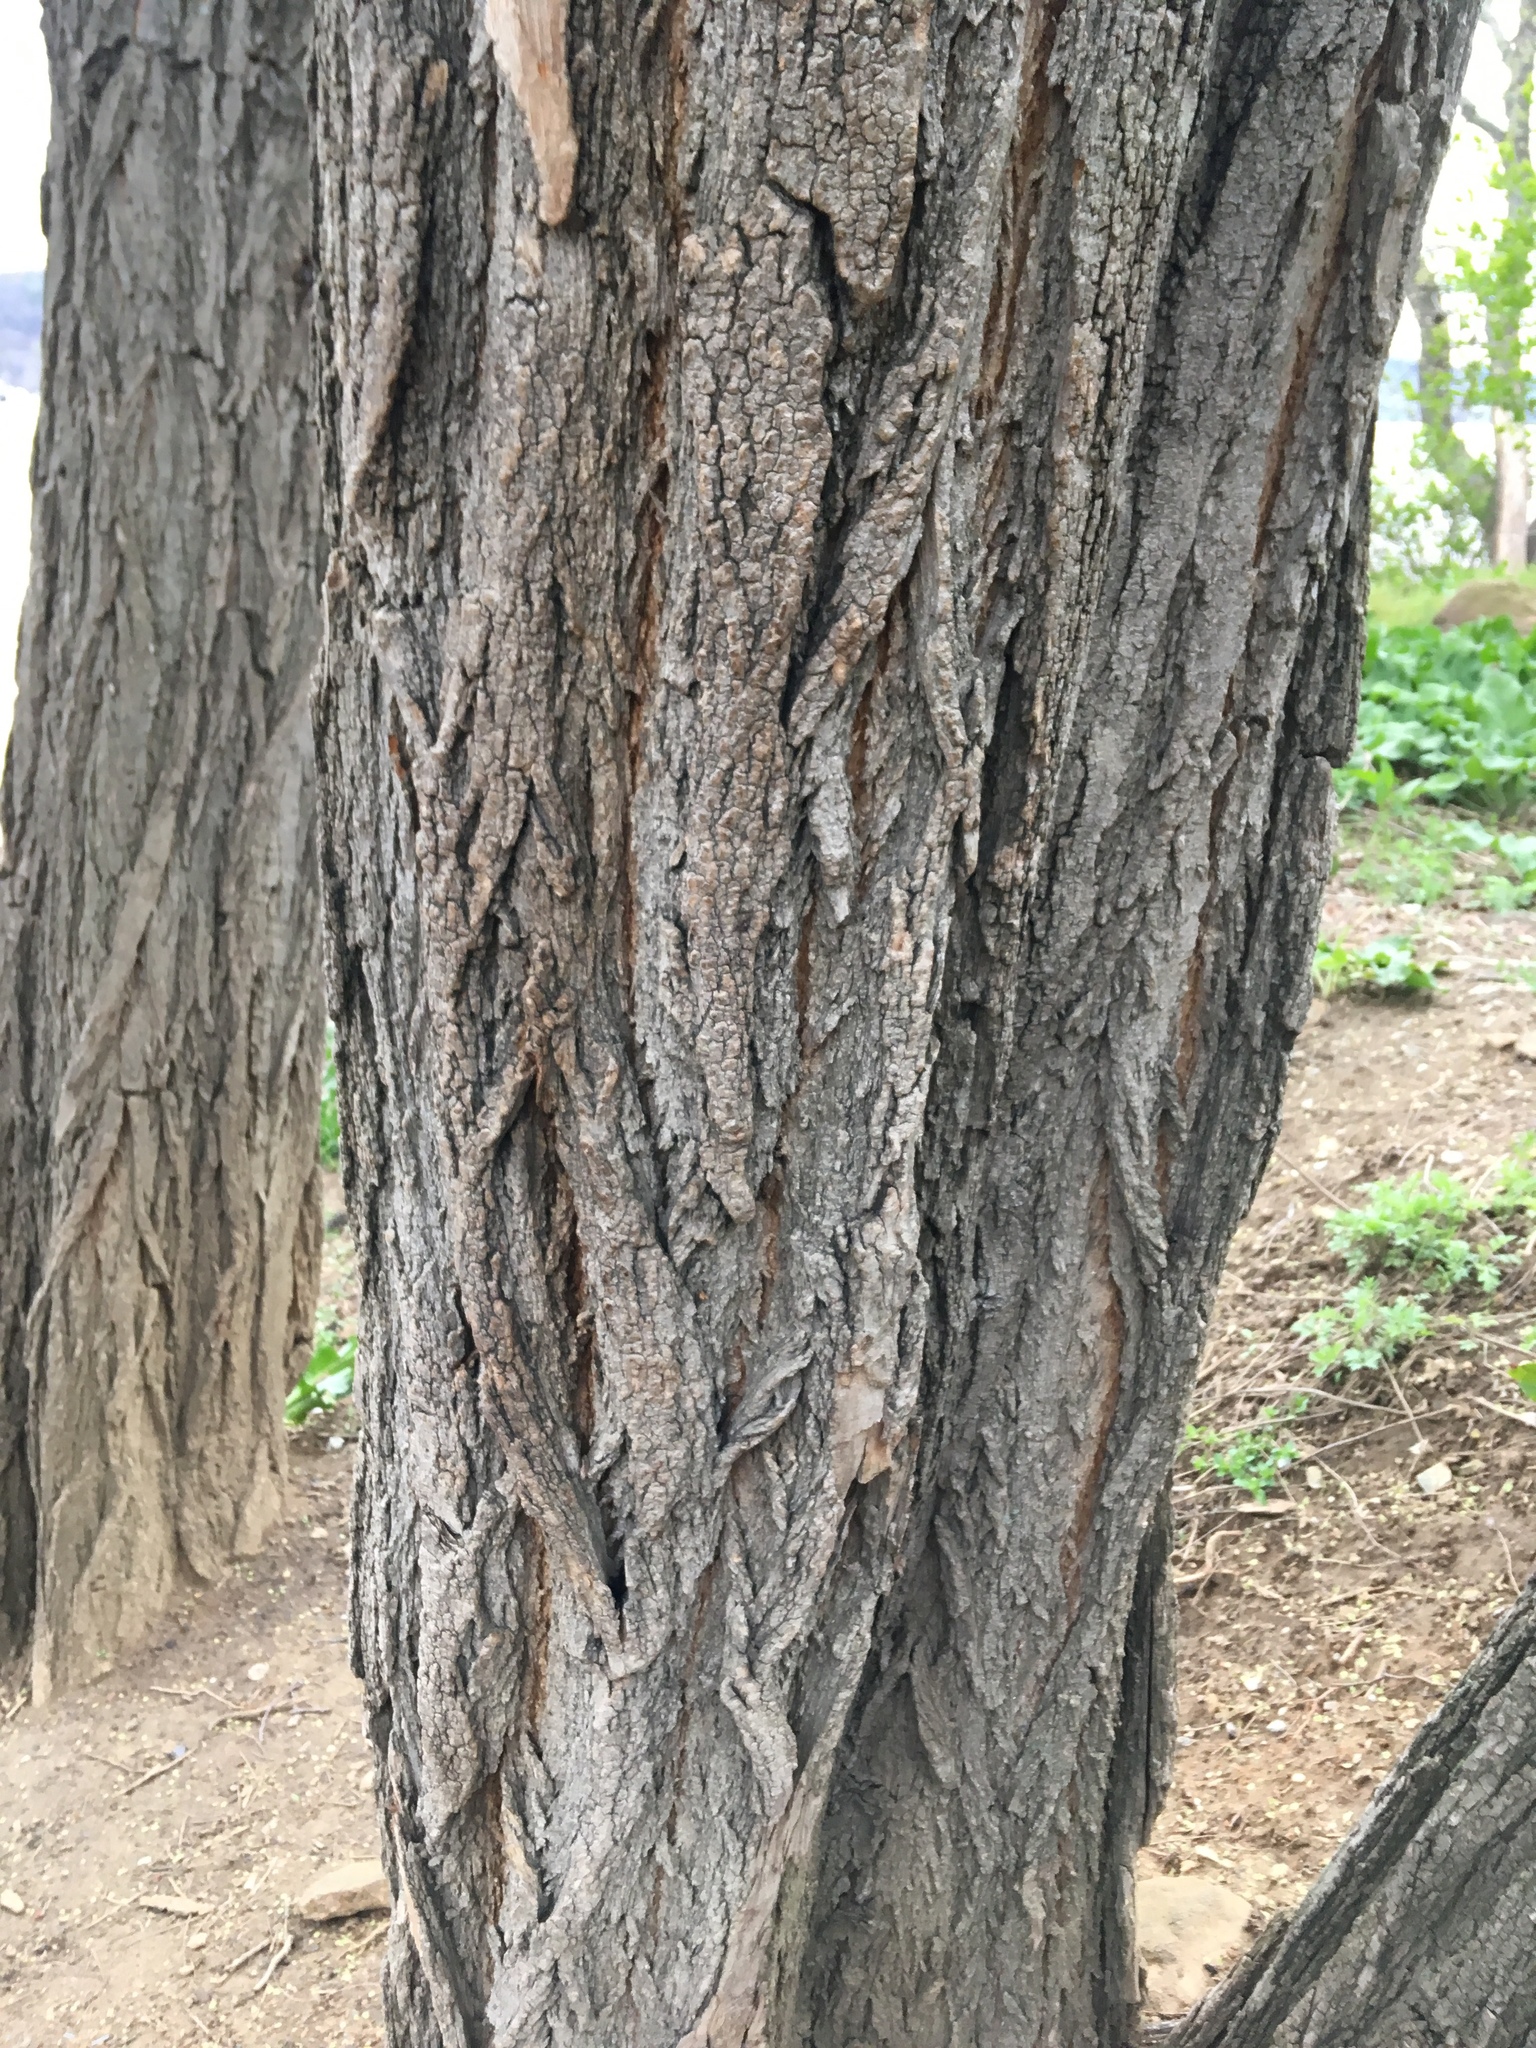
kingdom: Plantae
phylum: Tracheophyta
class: Magnoliopsida
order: Fabales
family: Fabaceae
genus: Robinia
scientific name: Robinia pseudoacacia
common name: Black locust
